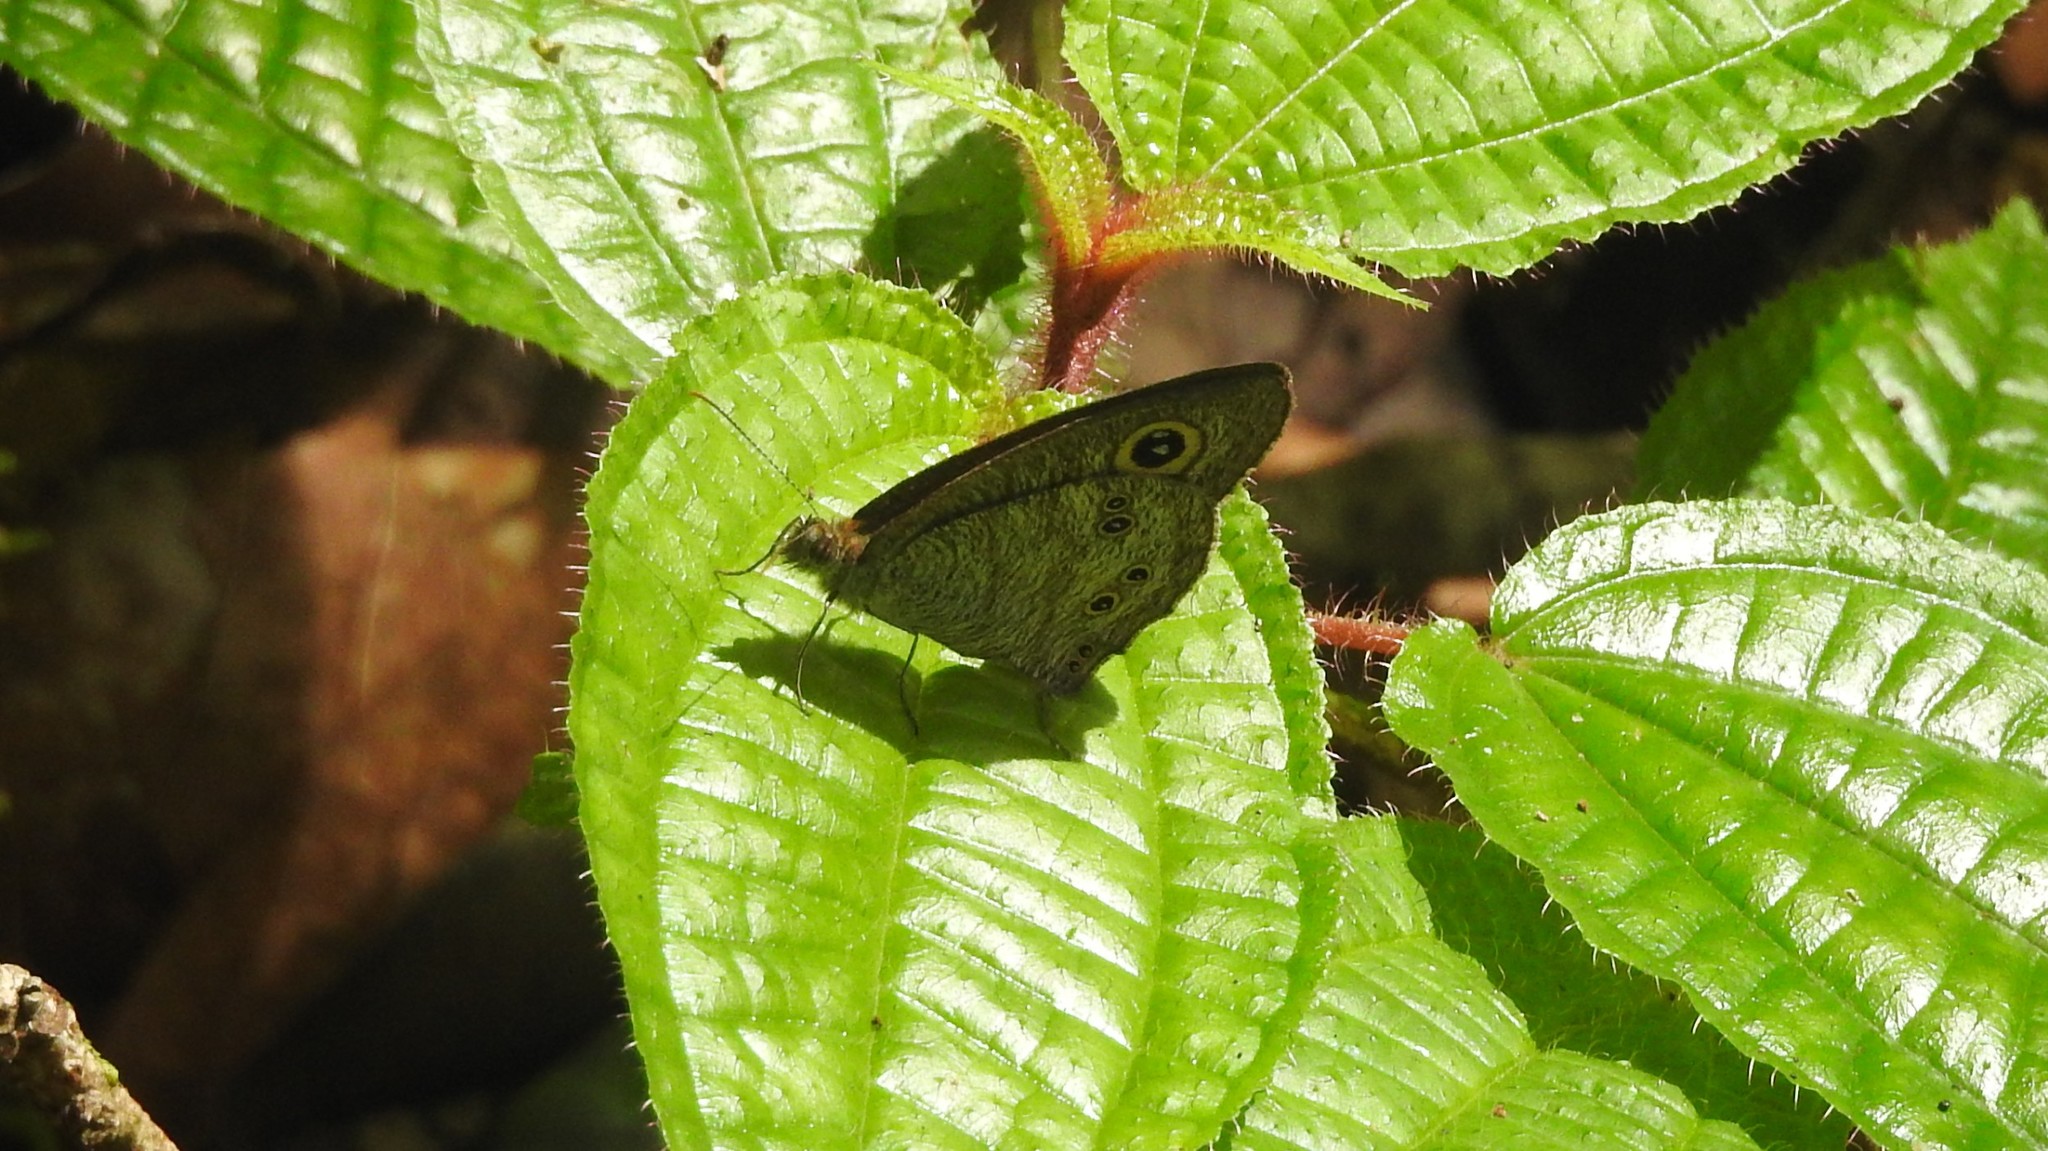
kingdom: Animalia
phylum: Arthropoda
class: Insecta
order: Lepidoptera
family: Nymphalidae
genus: Ypthima
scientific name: Ypthima baldus
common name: Common five-ring
